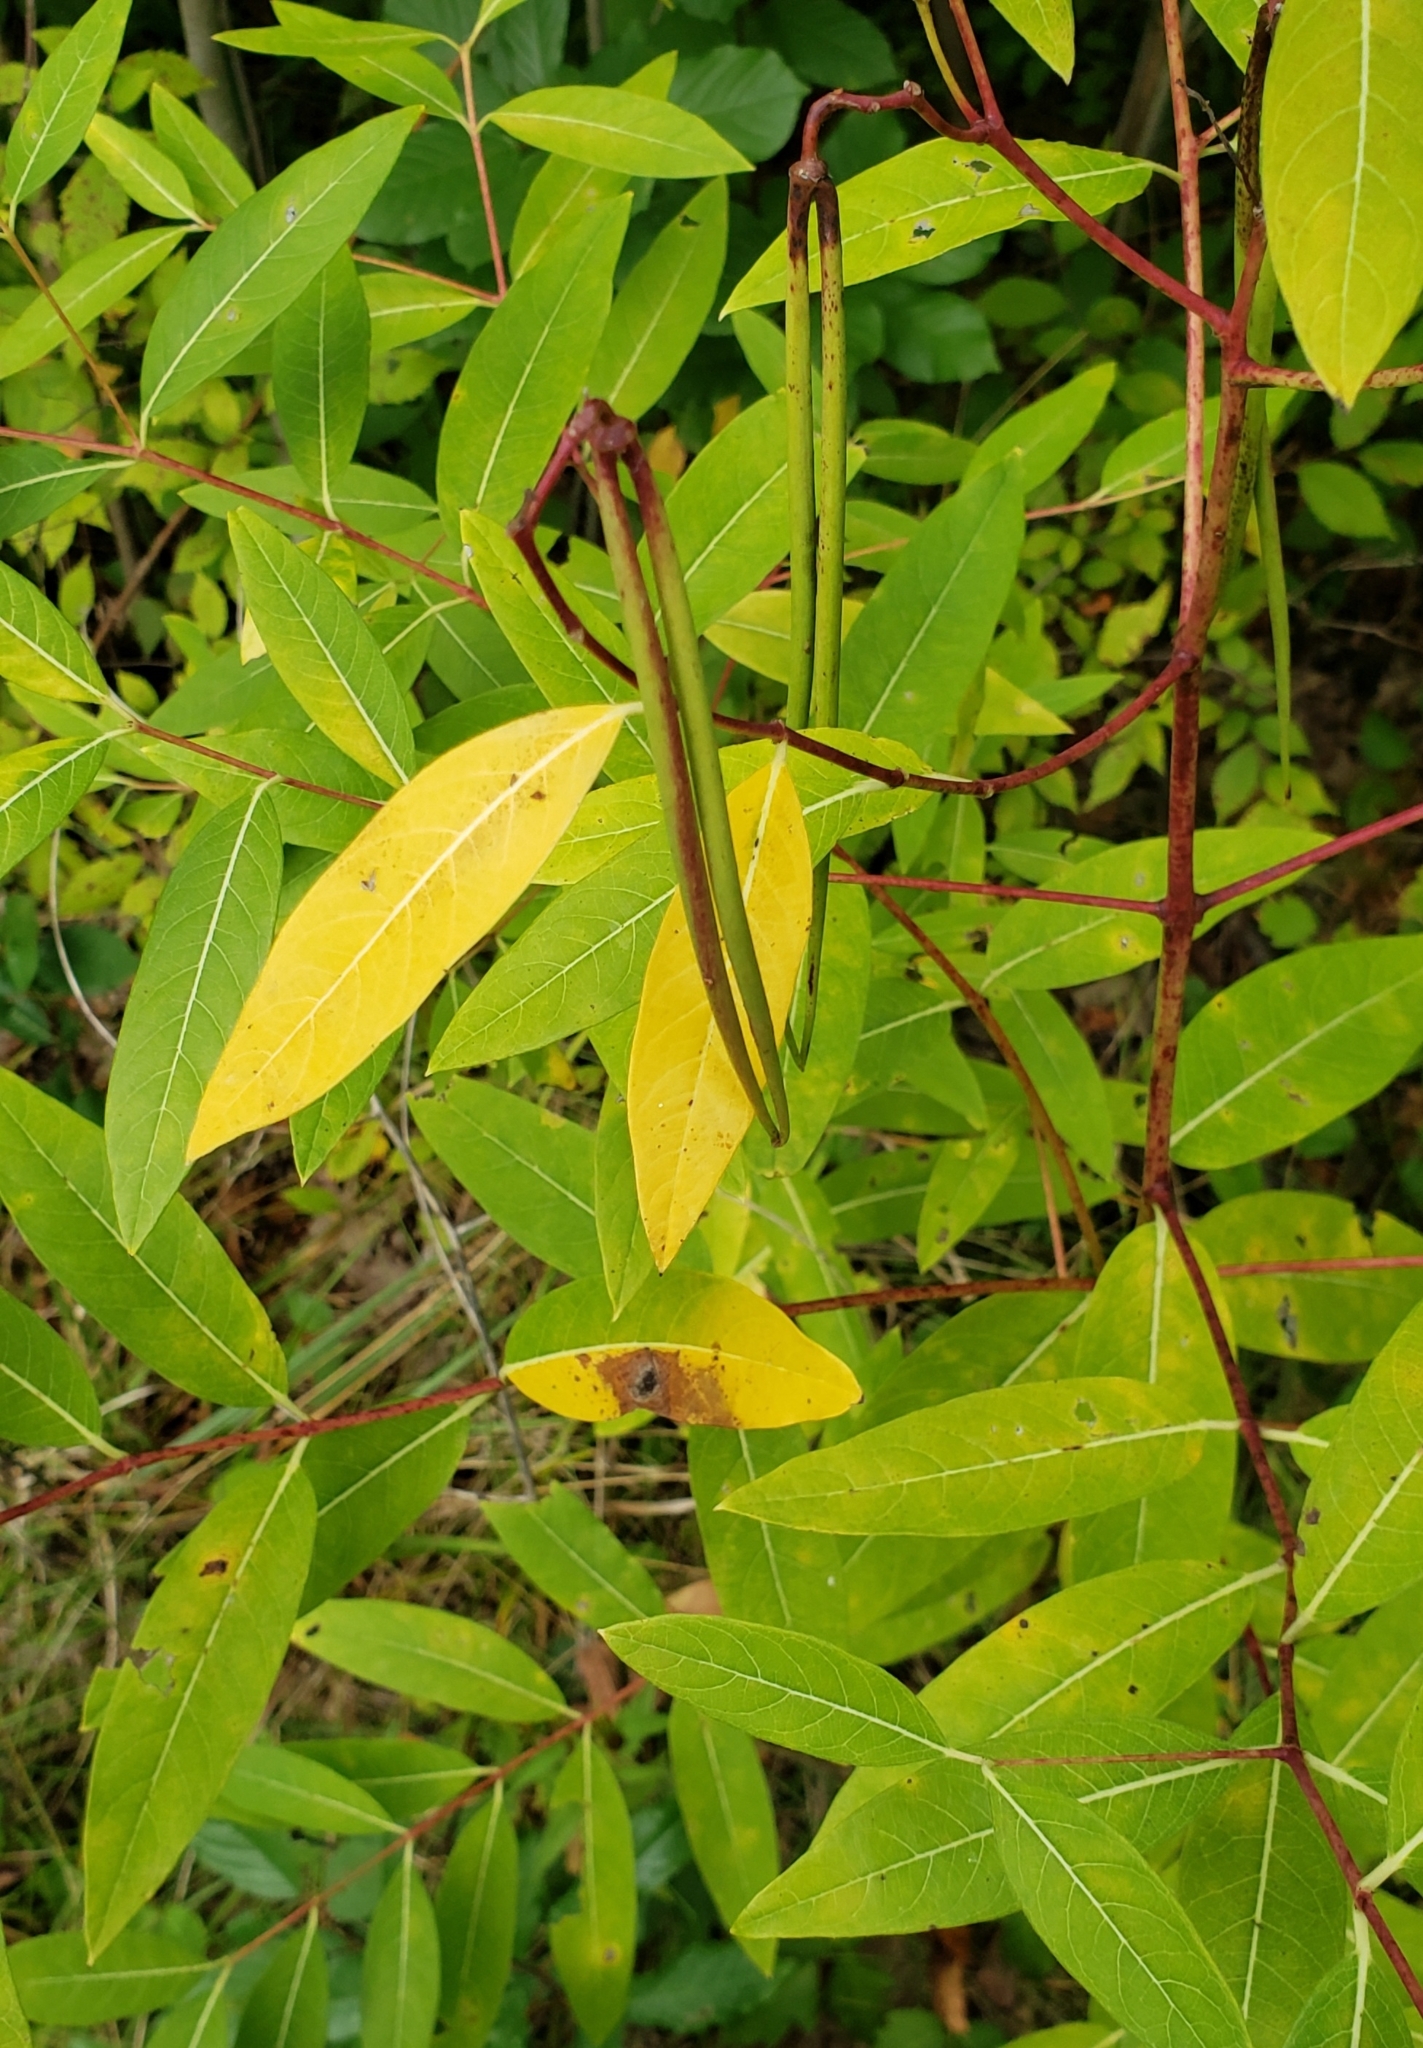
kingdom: Plantae
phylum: Tracheophyta
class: Magnoliopsida
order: Gentianales
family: Apocynaceae
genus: Apocynum
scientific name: Apocynum cannabinum
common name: Hemp dogbane
